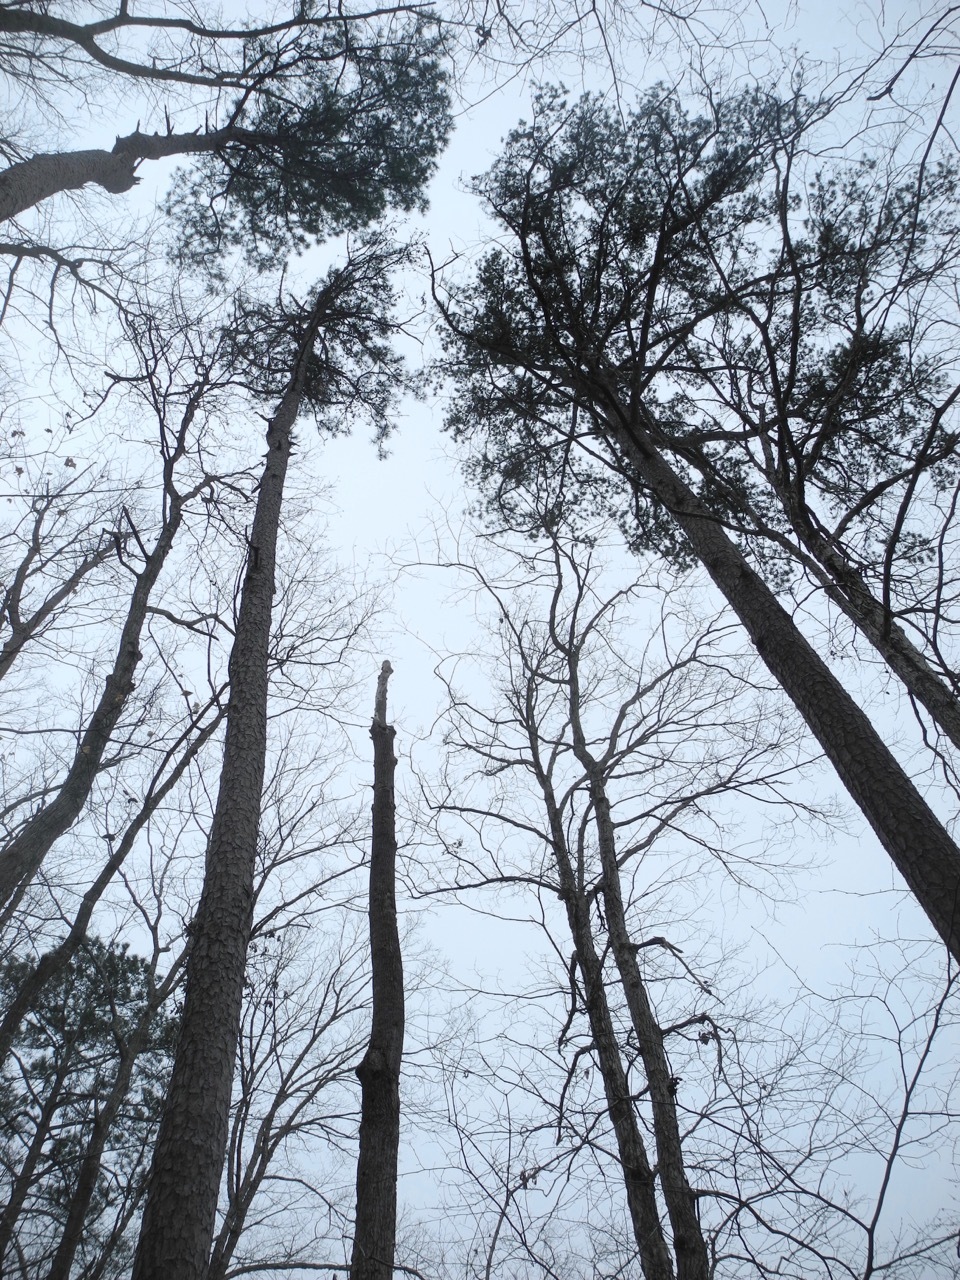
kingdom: Plantae
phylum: Tracheophyta
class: Pinopsida
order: Pinales
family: Pinaceae
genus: Pinus
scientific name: Pinus echinata
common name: Shortleaf pine
